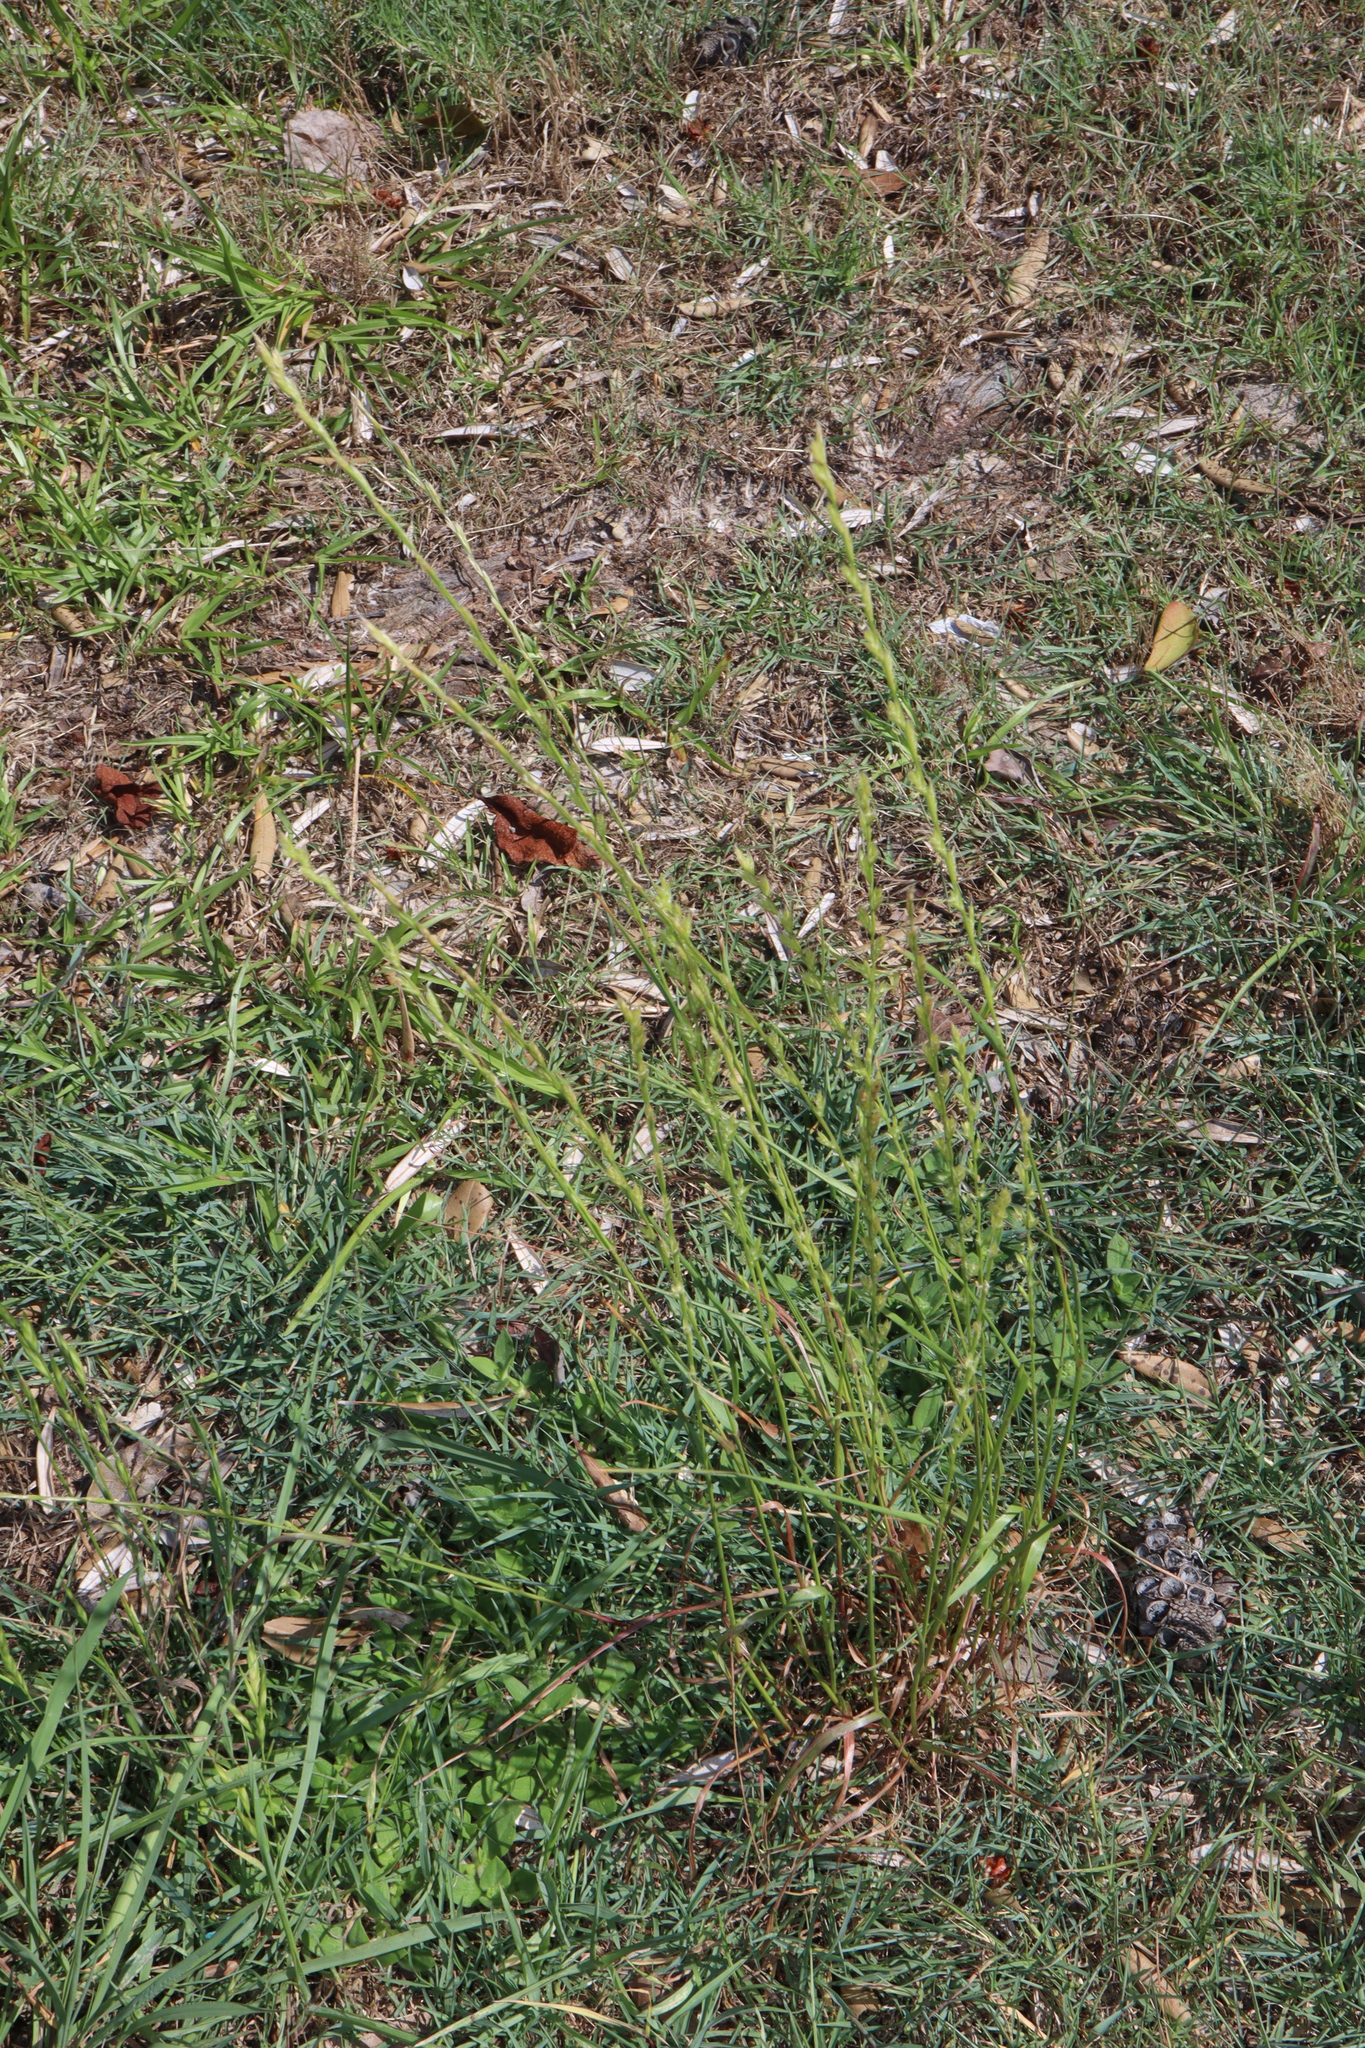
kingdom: Plantae
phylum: Tracheophyta
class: Liliopsida
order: Poales
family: Poaceae
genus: Lolium
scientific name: Lolium perenne
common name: Perennial ryegrass
